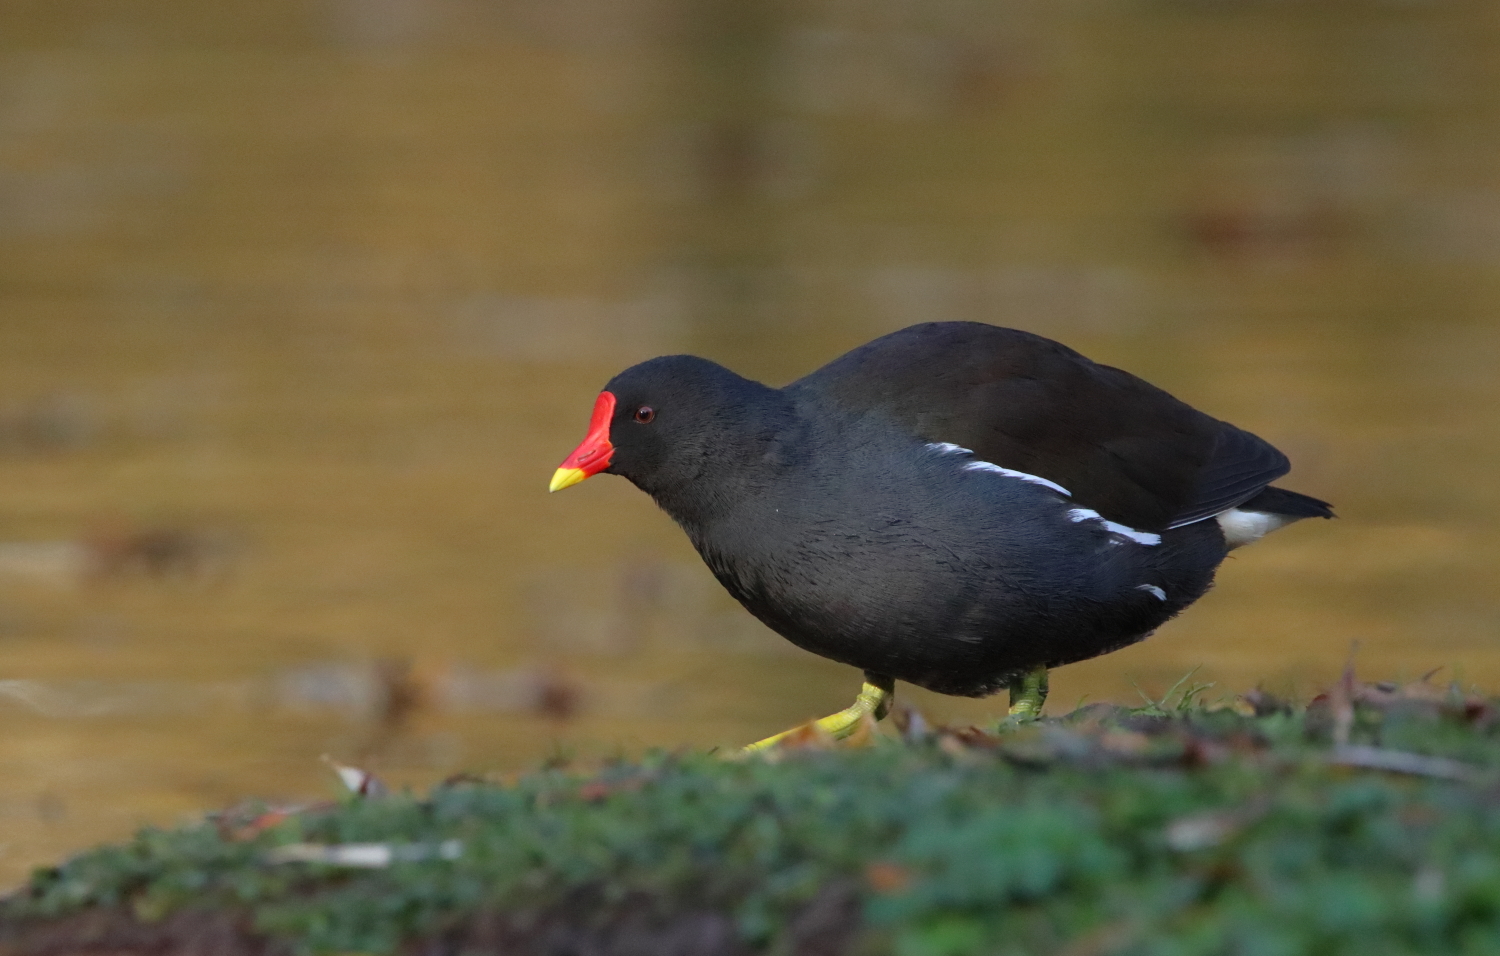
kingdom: Animalia
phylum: Chordata
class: Aves
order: Gruiformes
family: Rallidae
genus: Gallinula
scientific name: Gallinula chloropus
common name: Common moorhen
